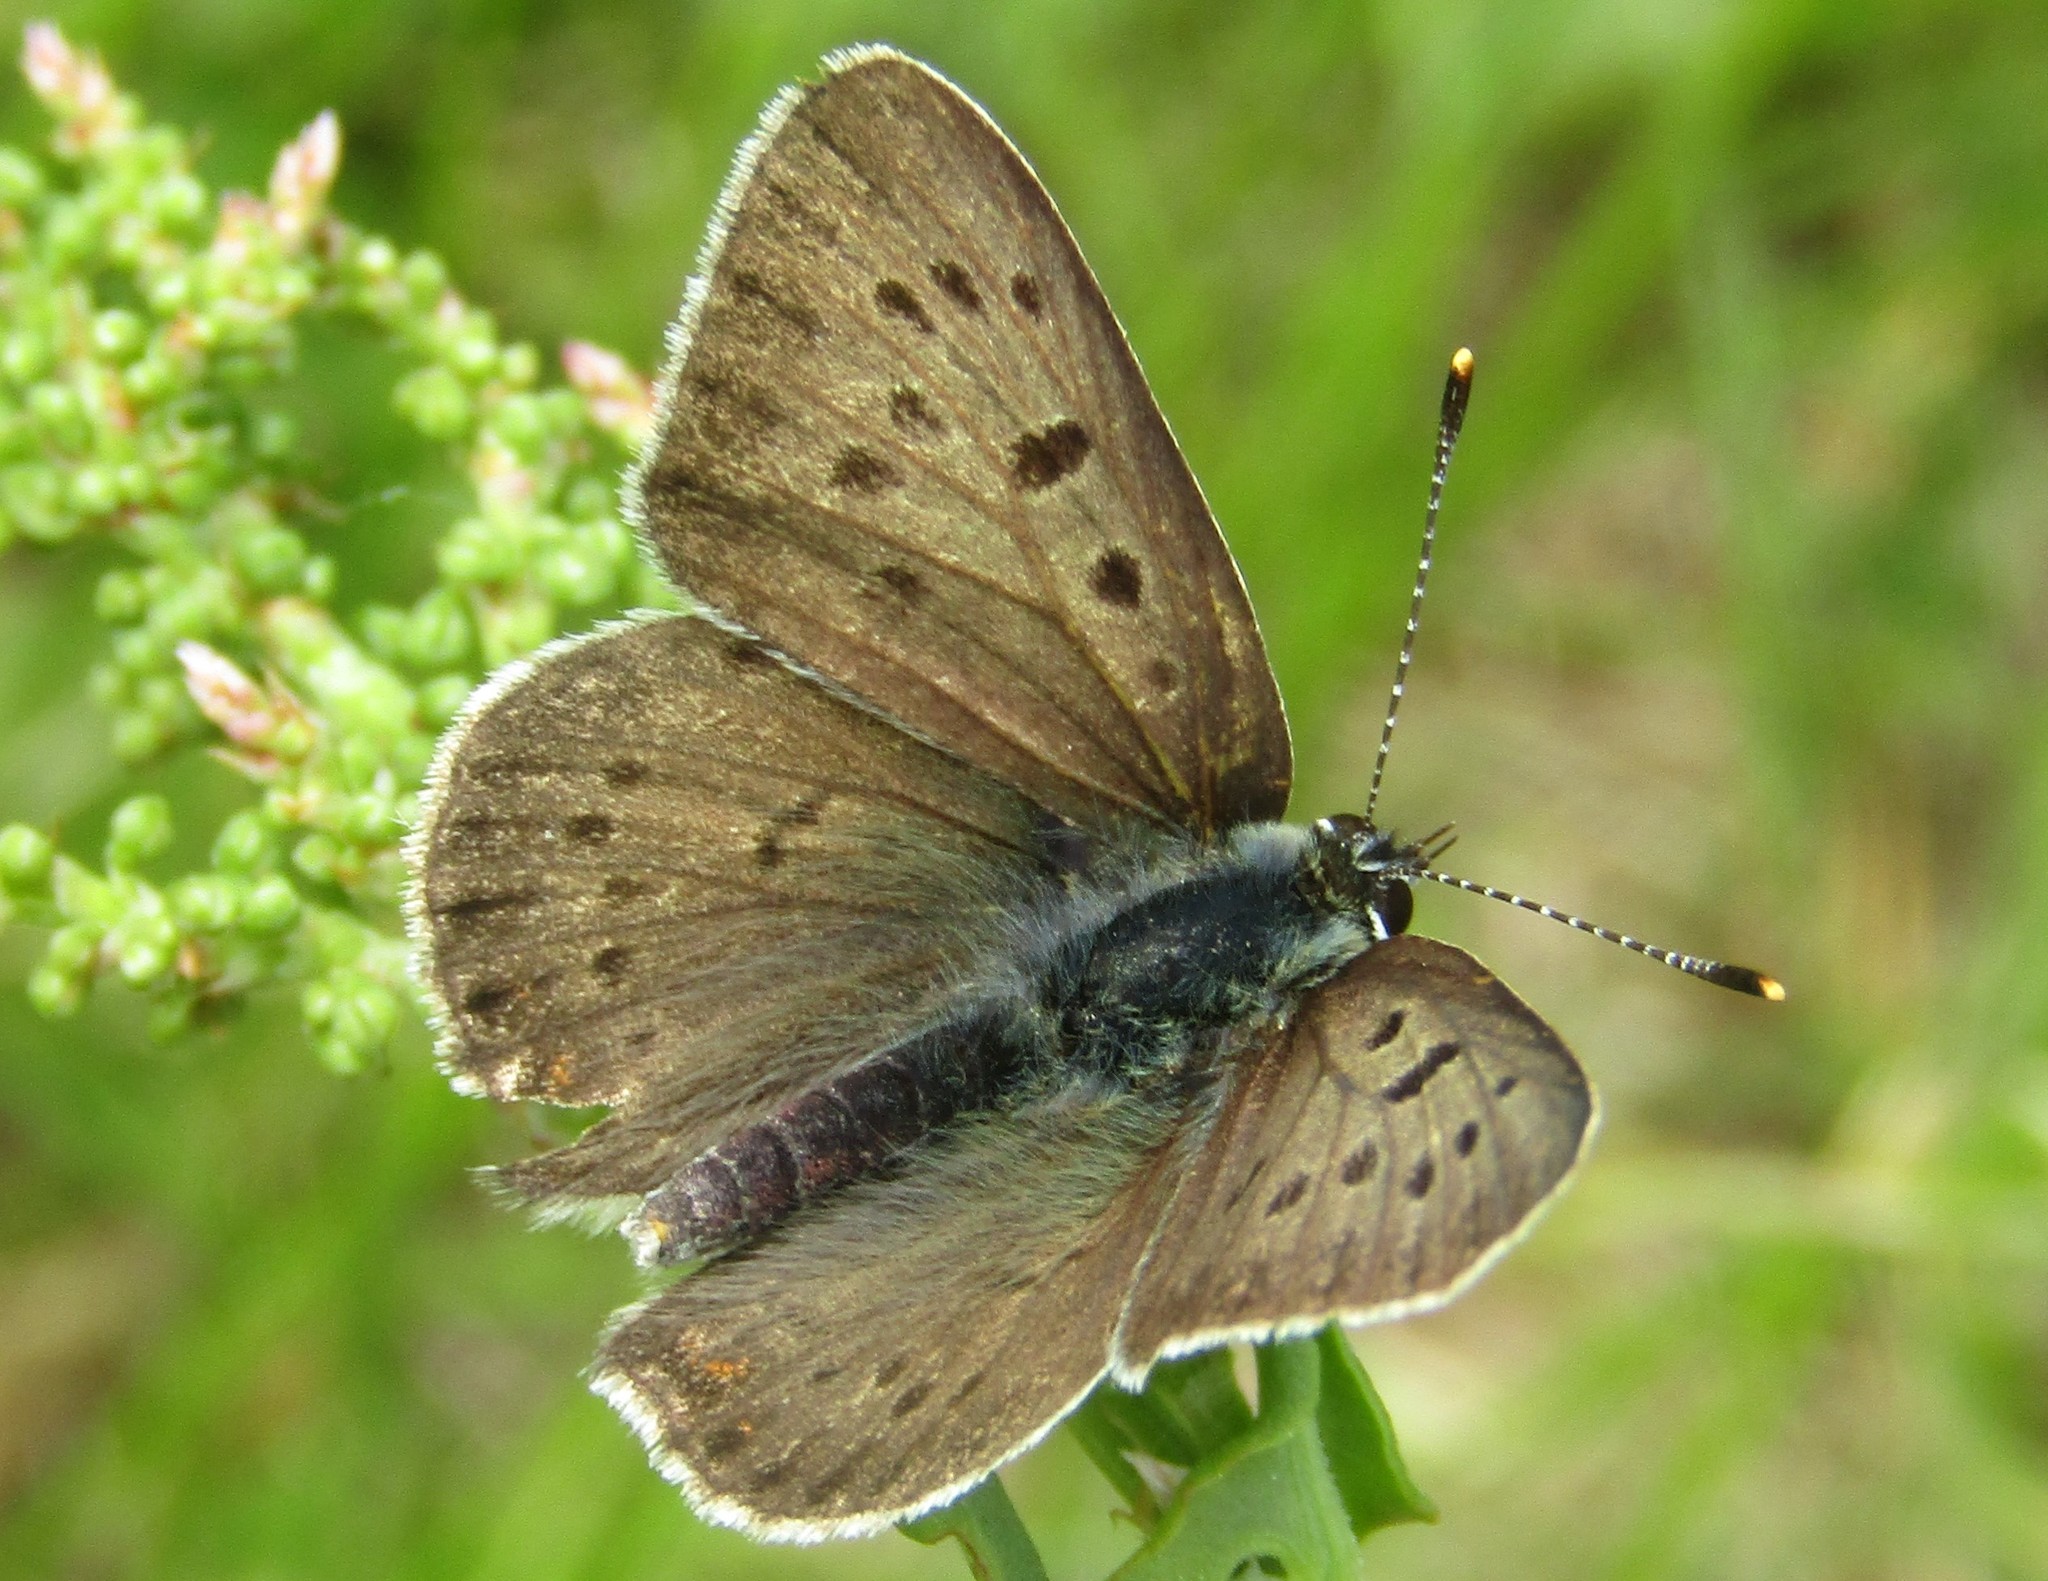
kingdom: Animalia
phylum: Arthropoda
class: Insecta
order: Lepidoptera
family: Lycaenidae
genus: Loweia
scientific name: Loweia tityrus
